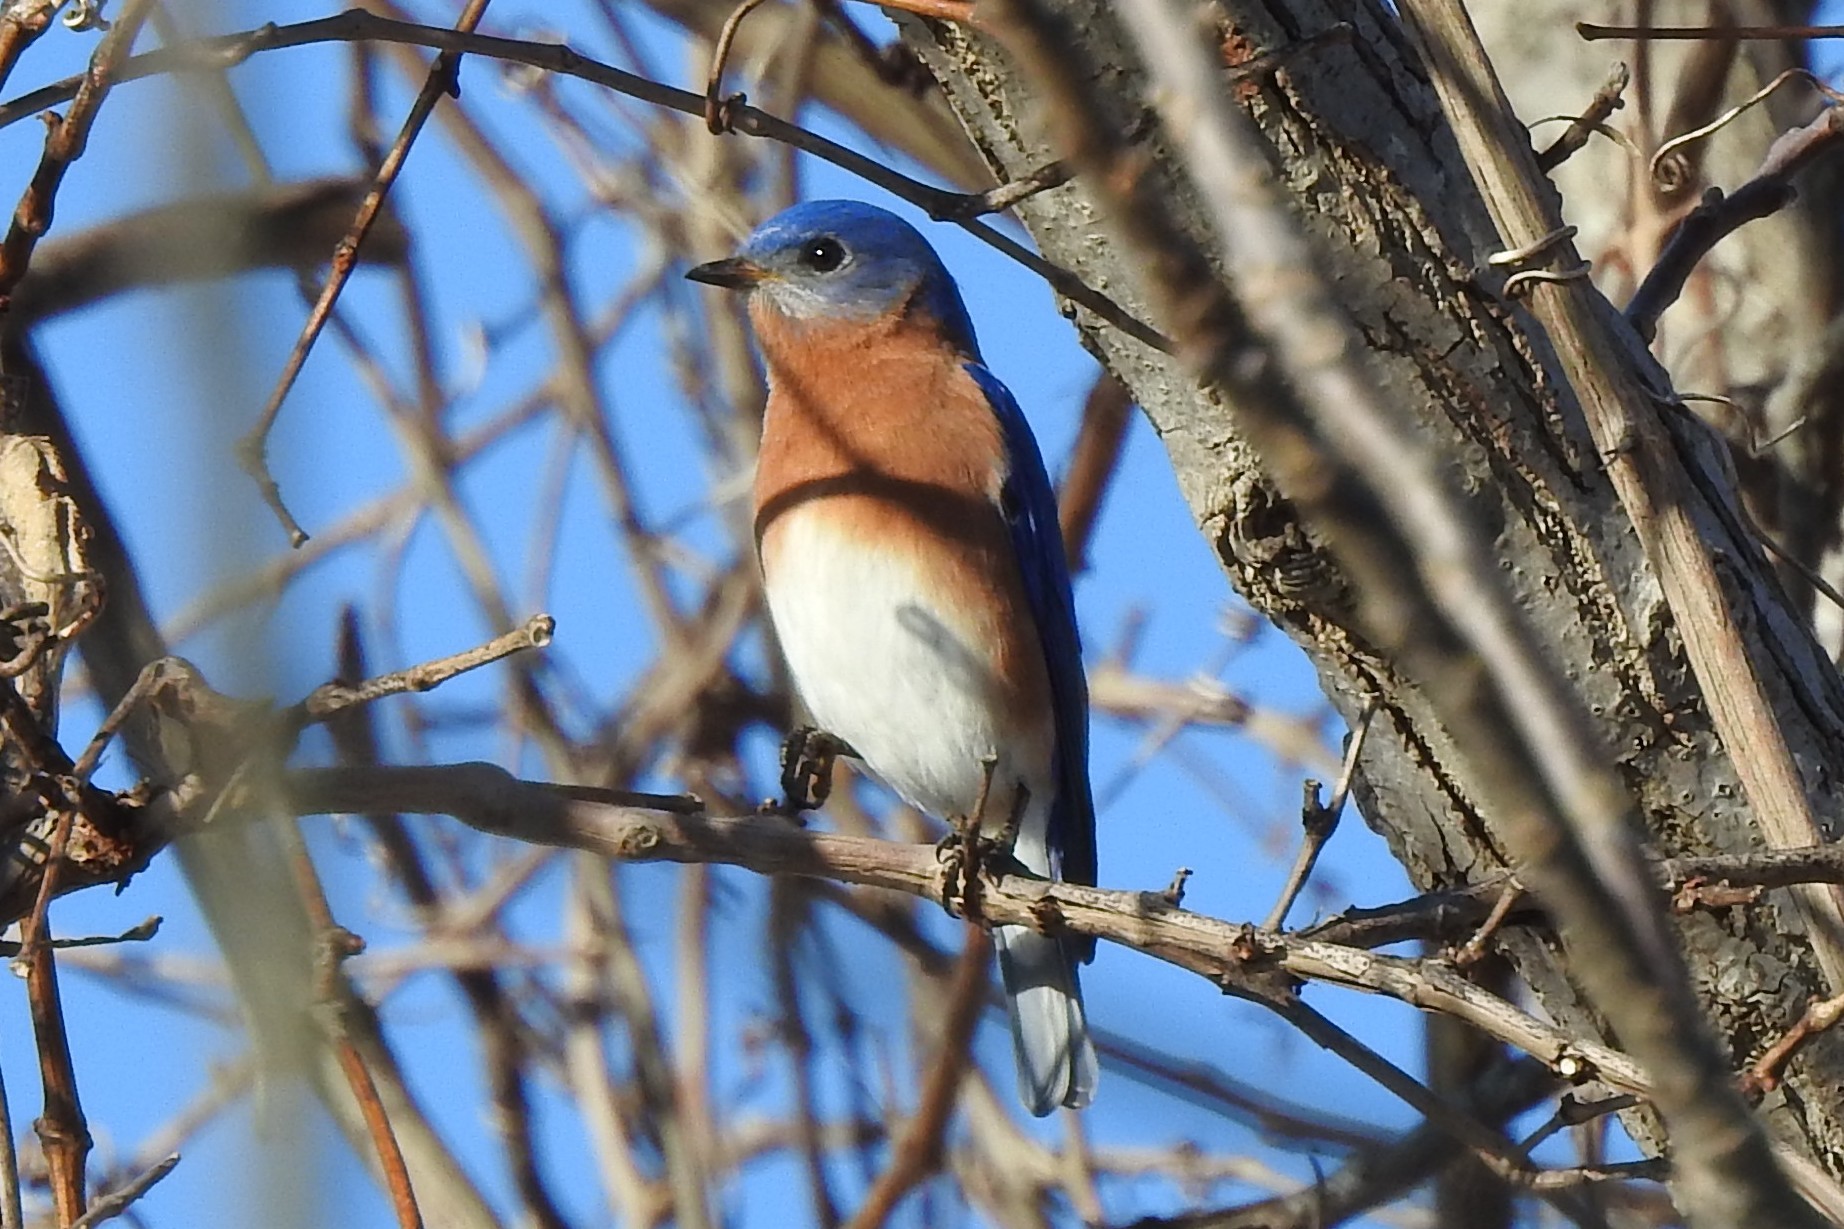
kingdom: Animalia
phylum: Chordata
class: Aves
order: Passeriformes
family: Turdidae
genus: Sialia
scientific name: Sialia sialis
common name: Eastern bluebird
